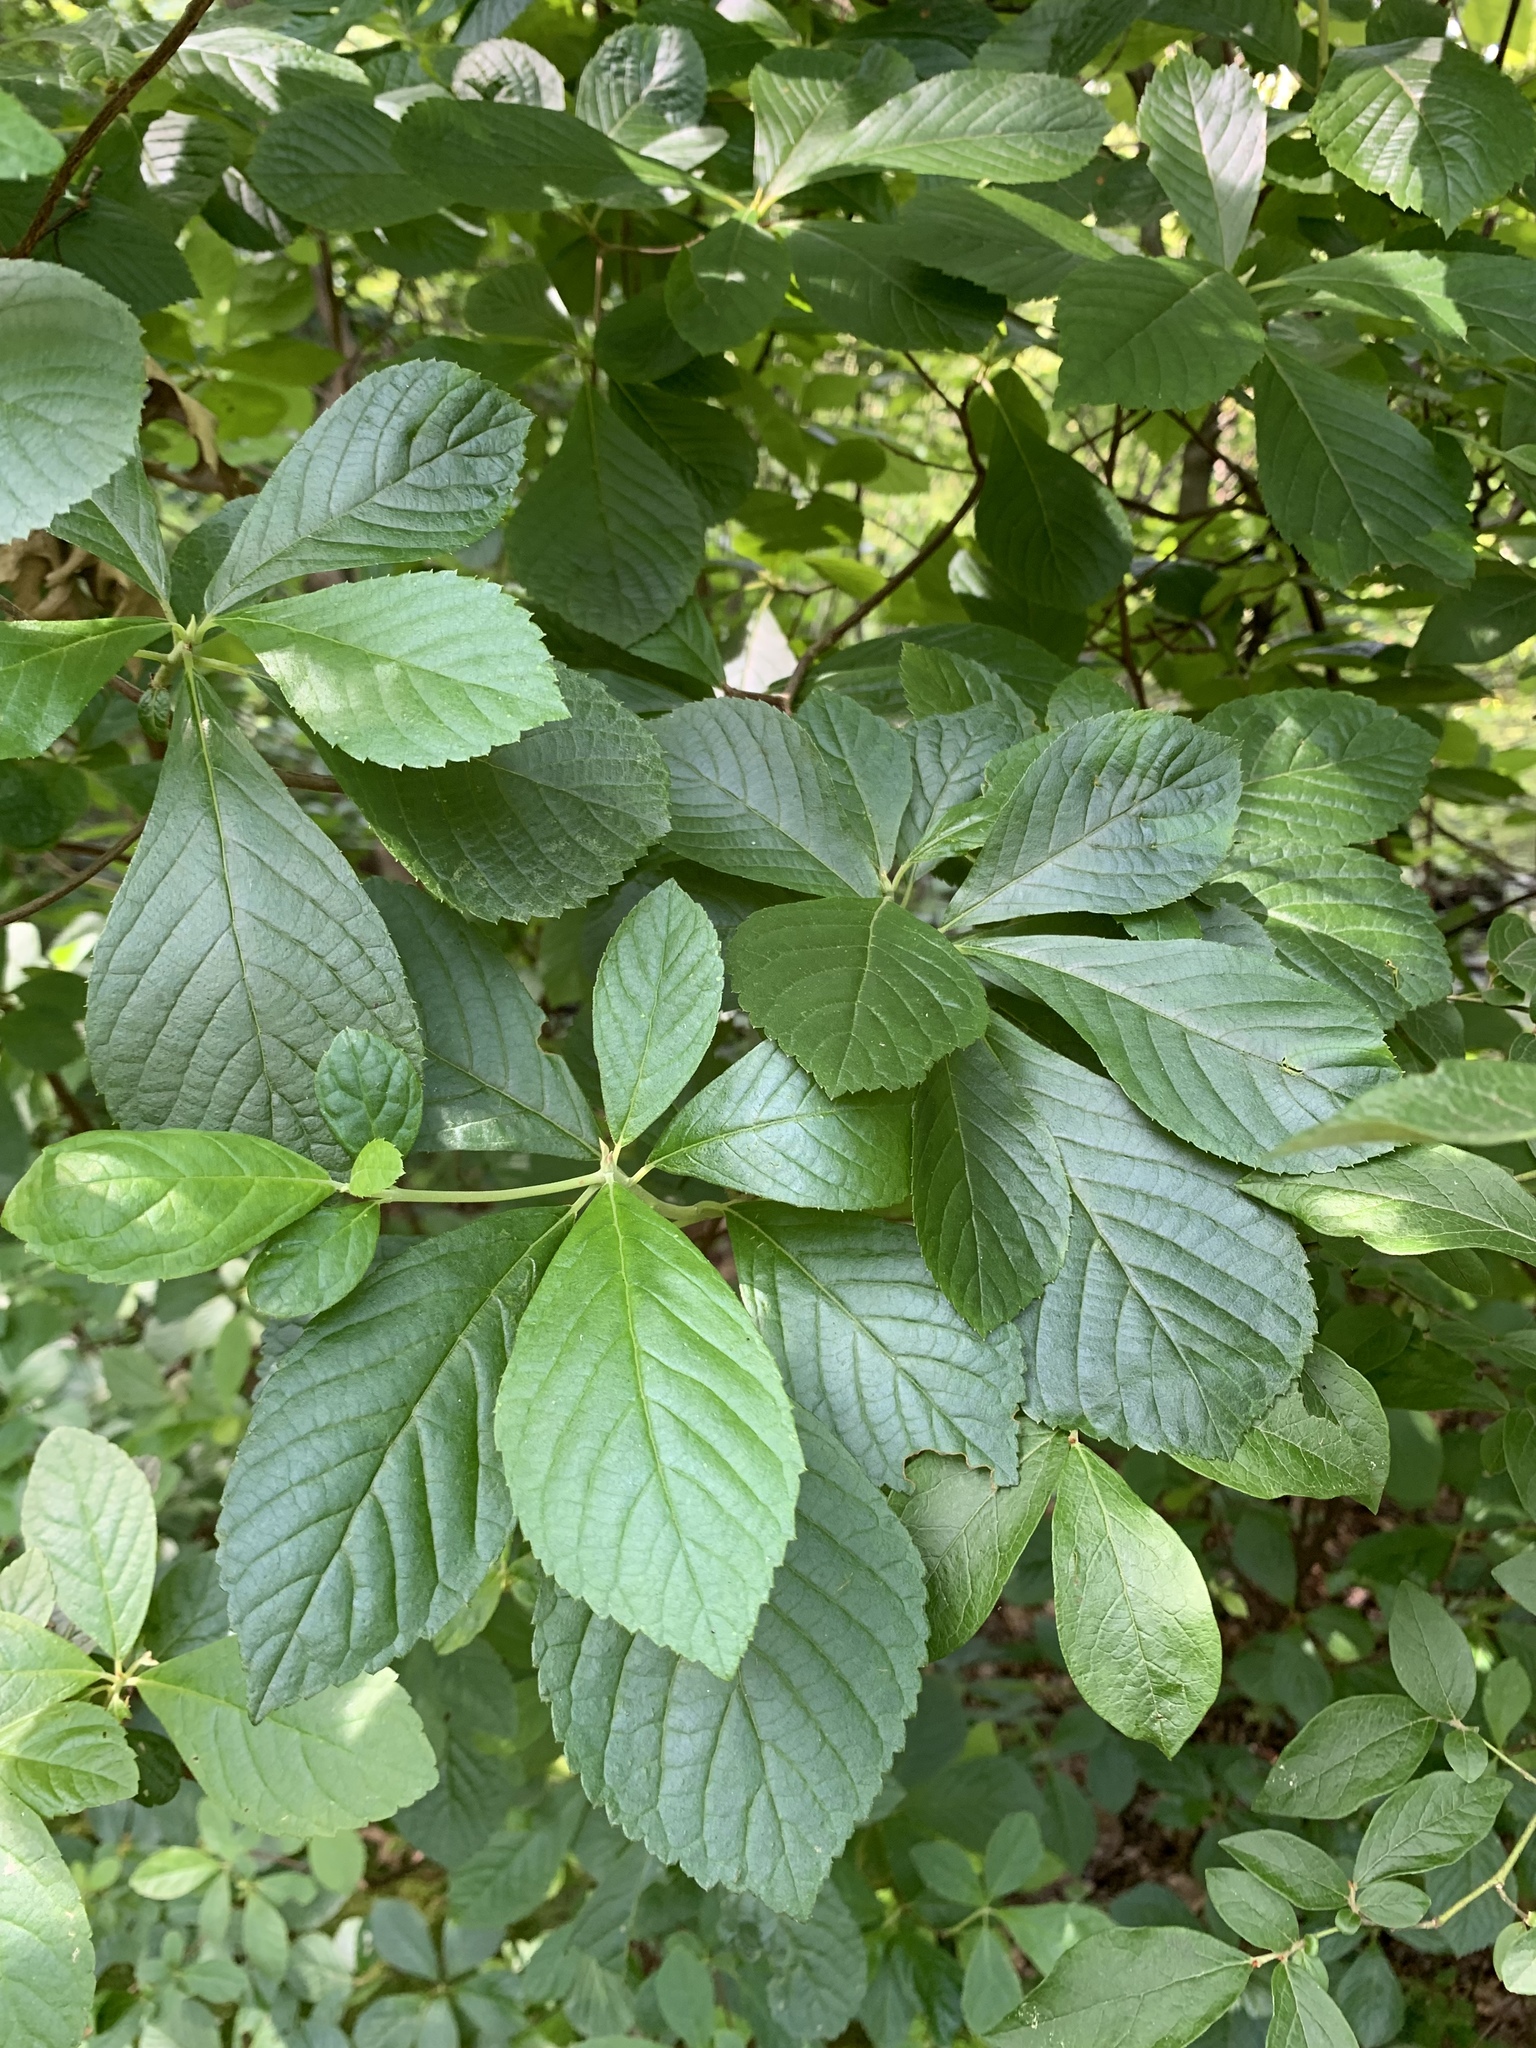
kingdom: Plantae
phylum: Tracheophyta
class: Magnoliopsida
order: Ericales
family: Clethraceae
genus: Clethra
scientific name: Clethra alnifolia
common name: Sweet pepperbush
